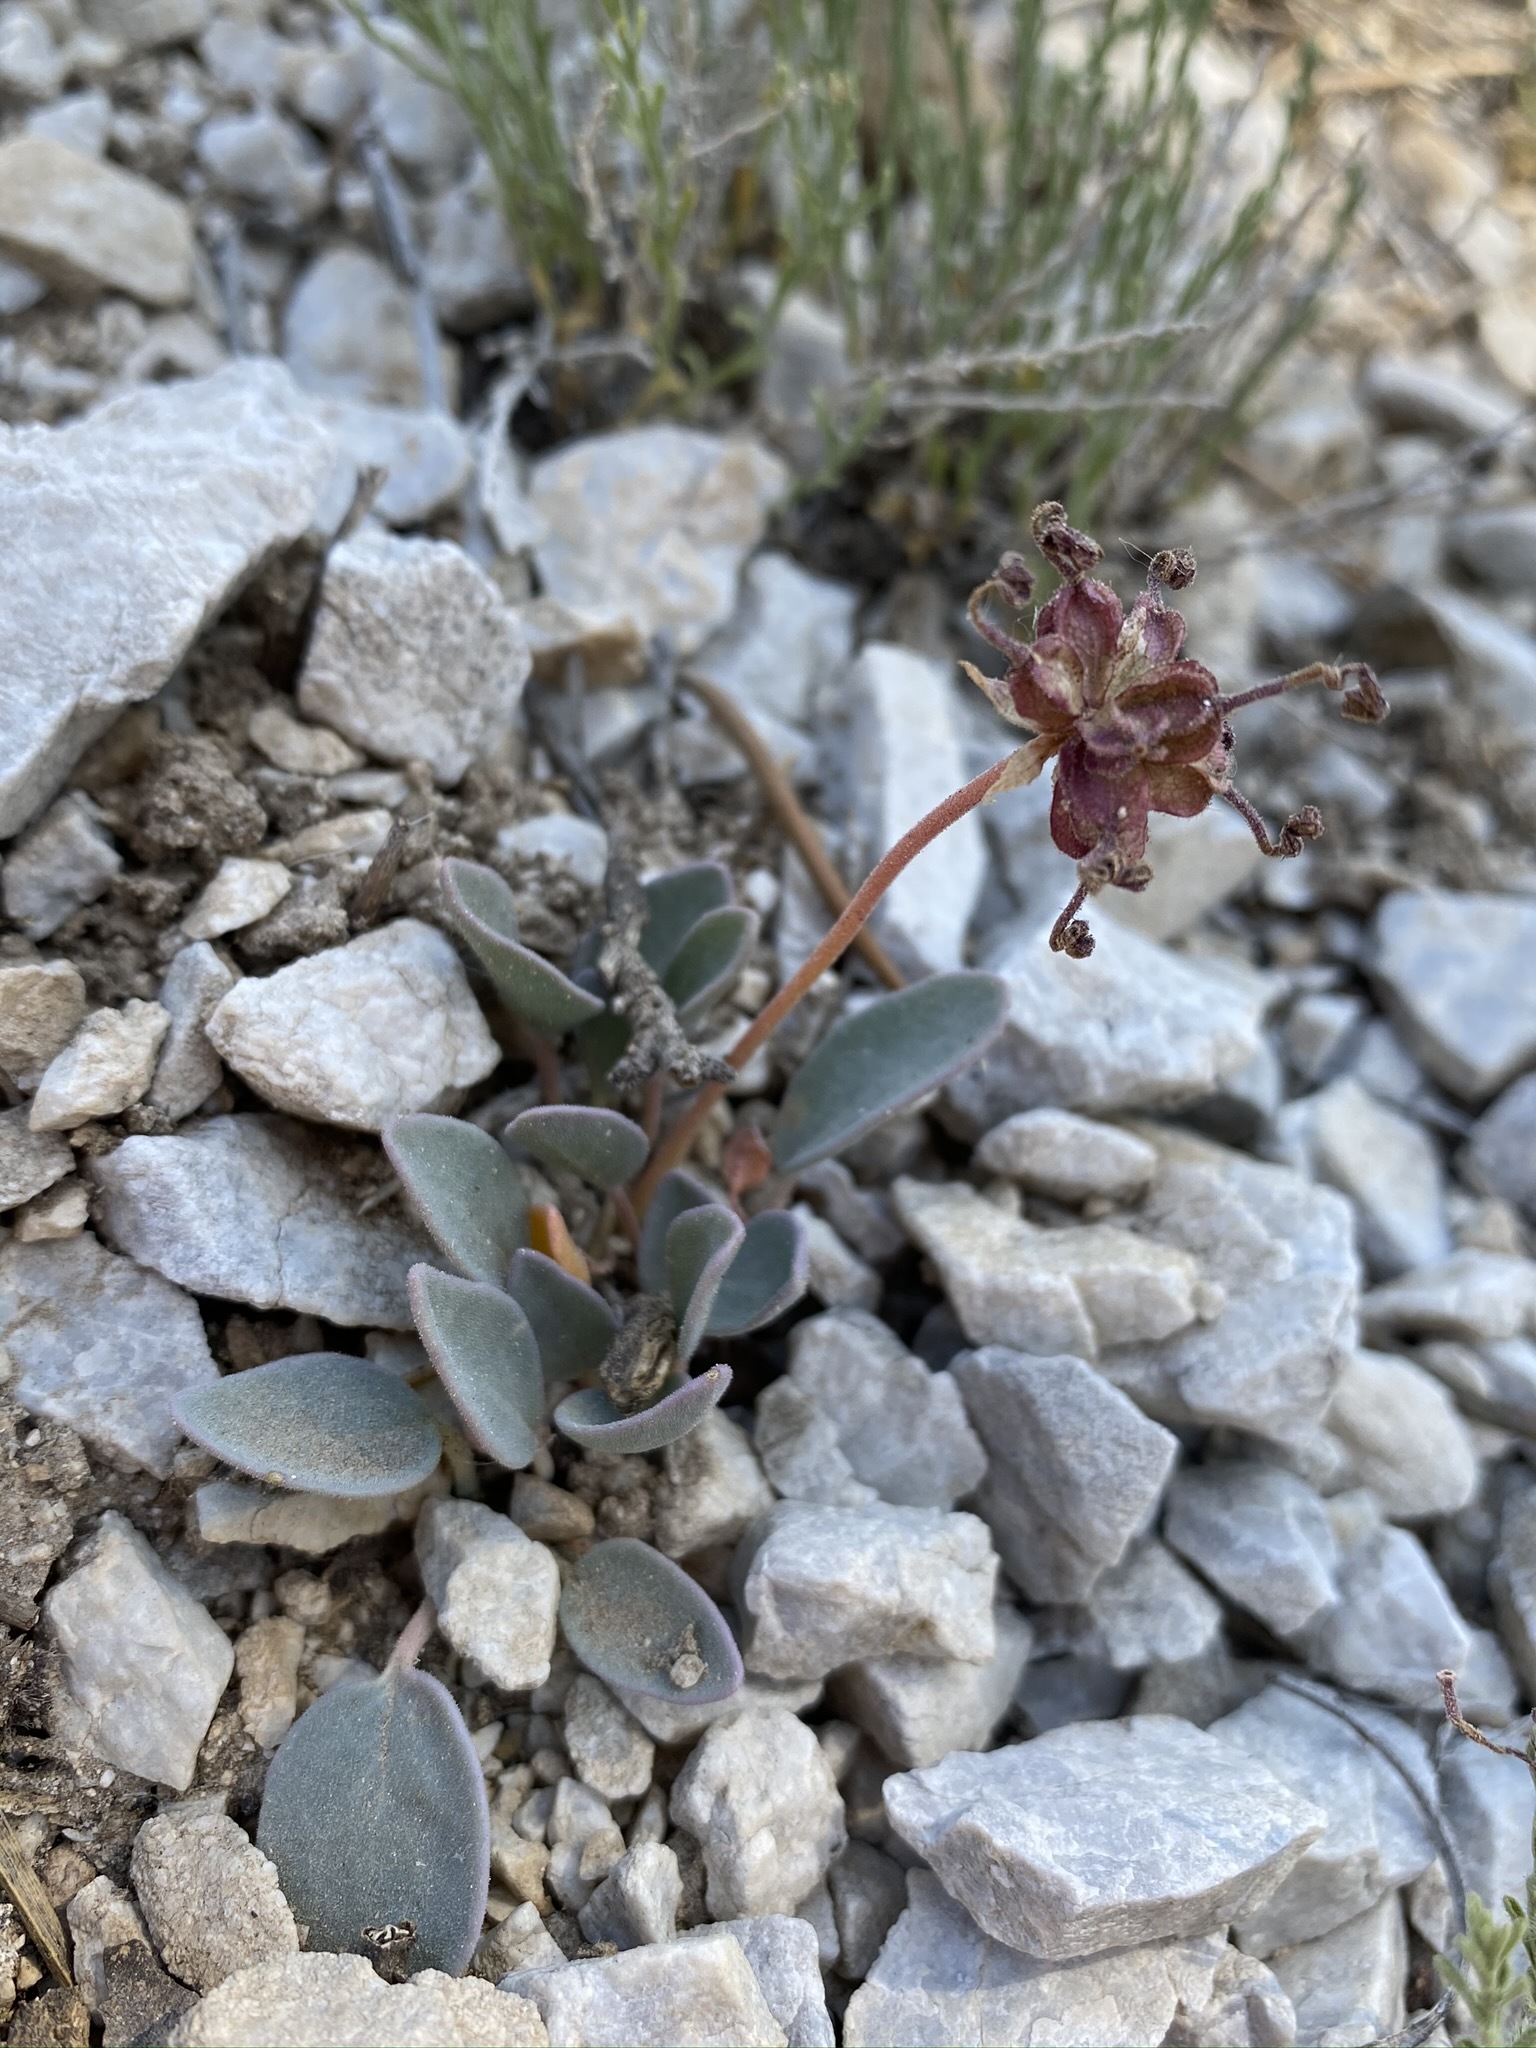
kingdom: Plantae
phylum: Tracheophyta
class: Magnoliopsida
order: Caryophyllales
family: Nyctaginaceae
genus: Abronia
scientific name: Abronia nana
